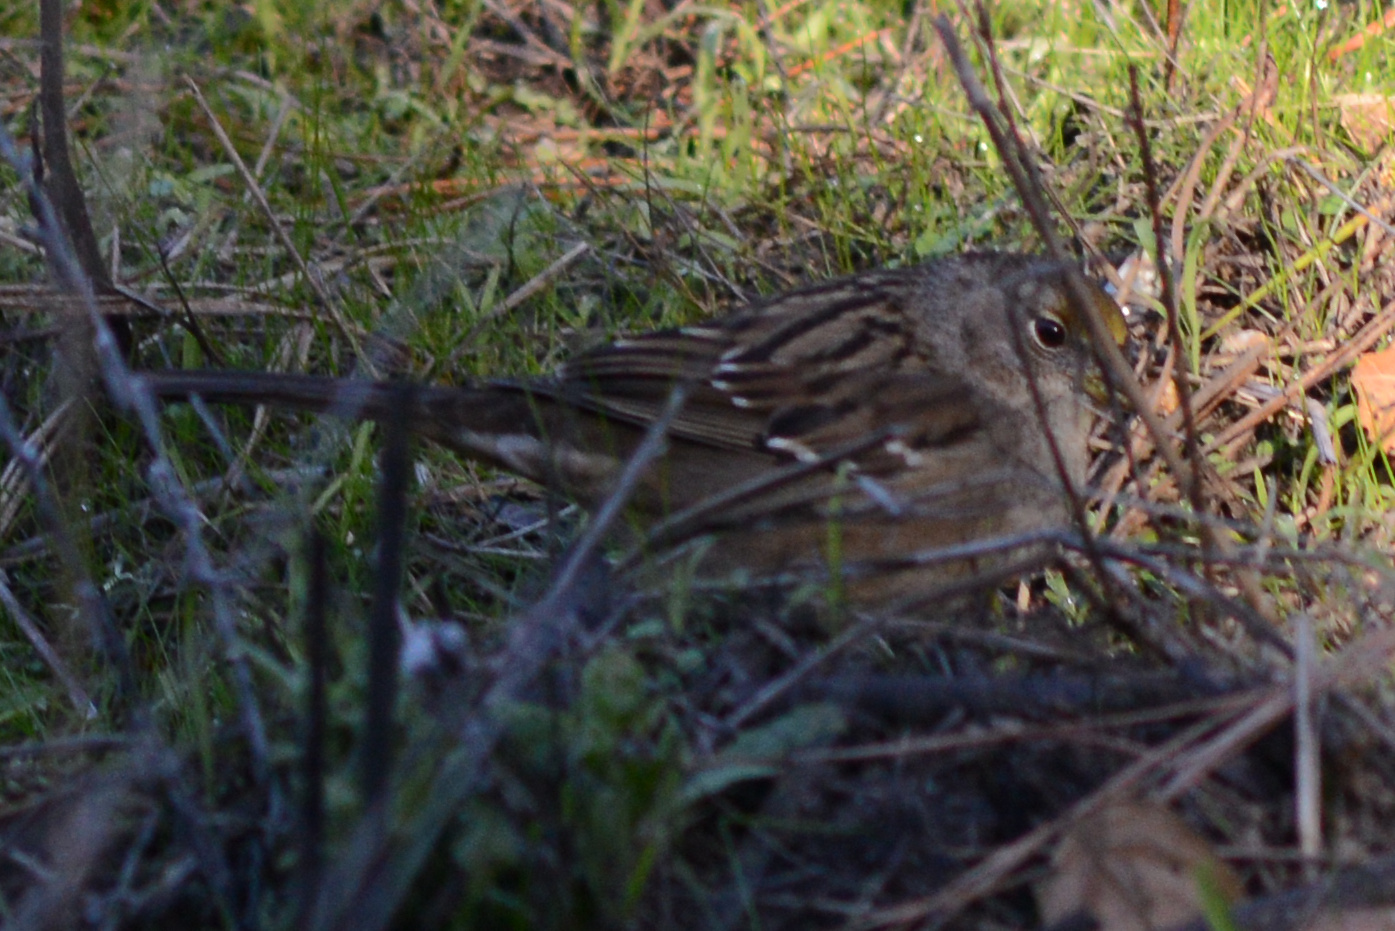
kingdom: Animalia
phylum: Chordata
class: Aves
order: Passeriformes
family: Passerellidae
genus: Zonotrichia
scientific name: Zonotrichia atricapilla
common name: Golden-crowned sparrow
